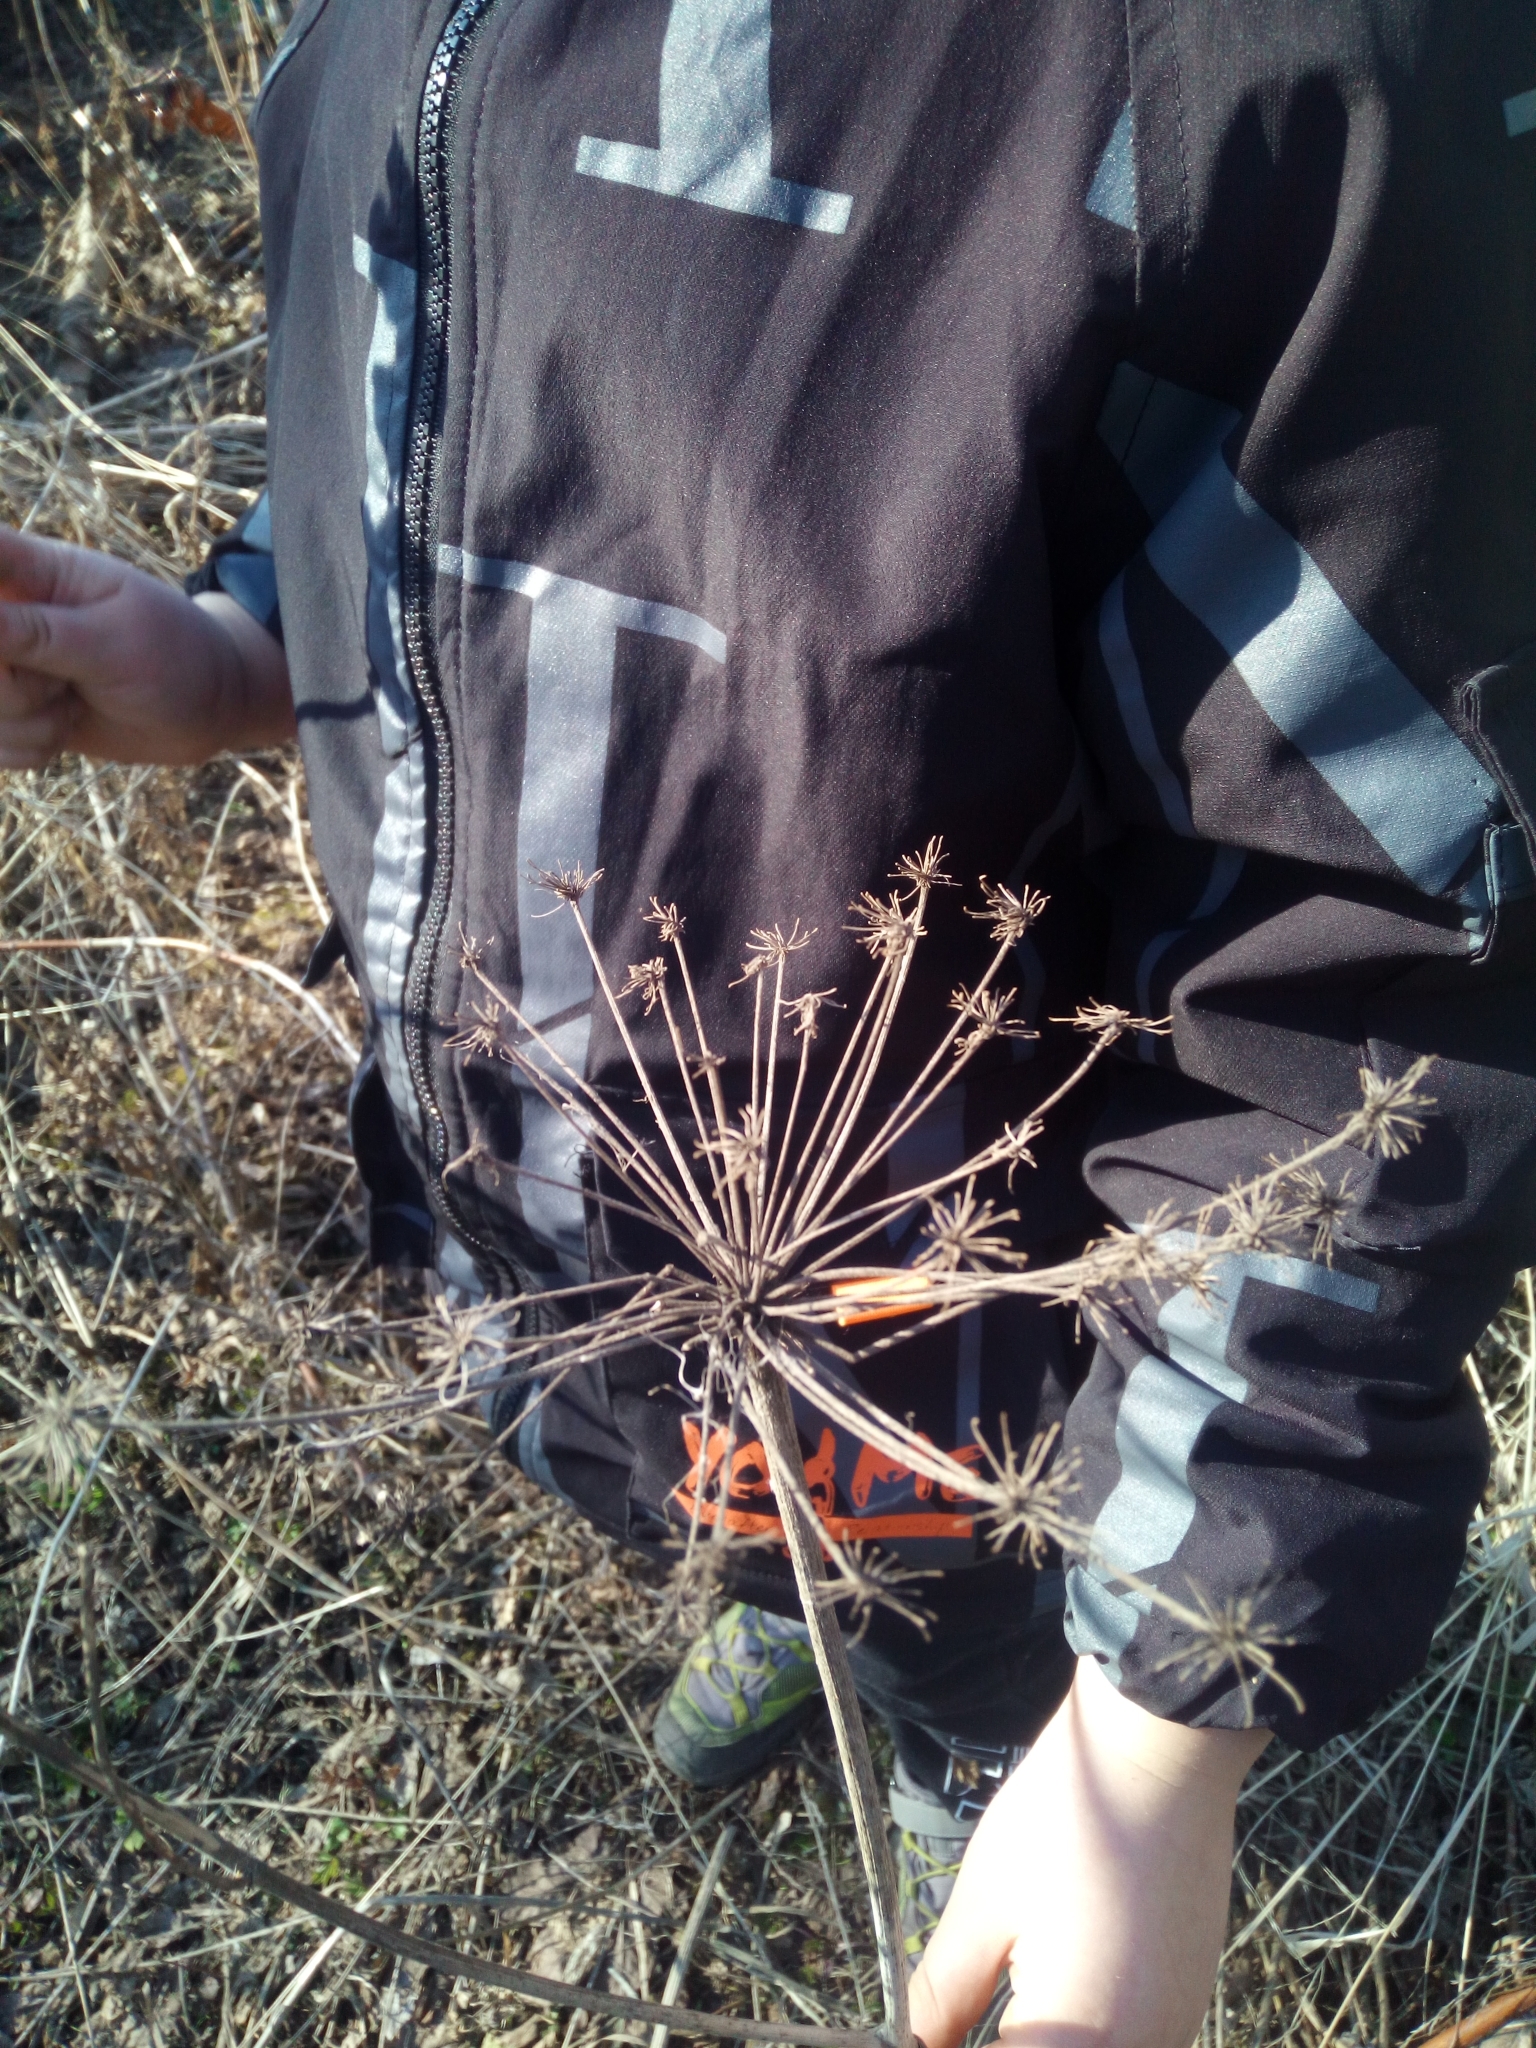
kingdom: Plantae
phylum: Tracheophyta
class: Magnoliopsida
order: Apiales
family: Apiaceae
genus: Angelica
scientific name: Angelica sylvestris
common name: Wild angelica
